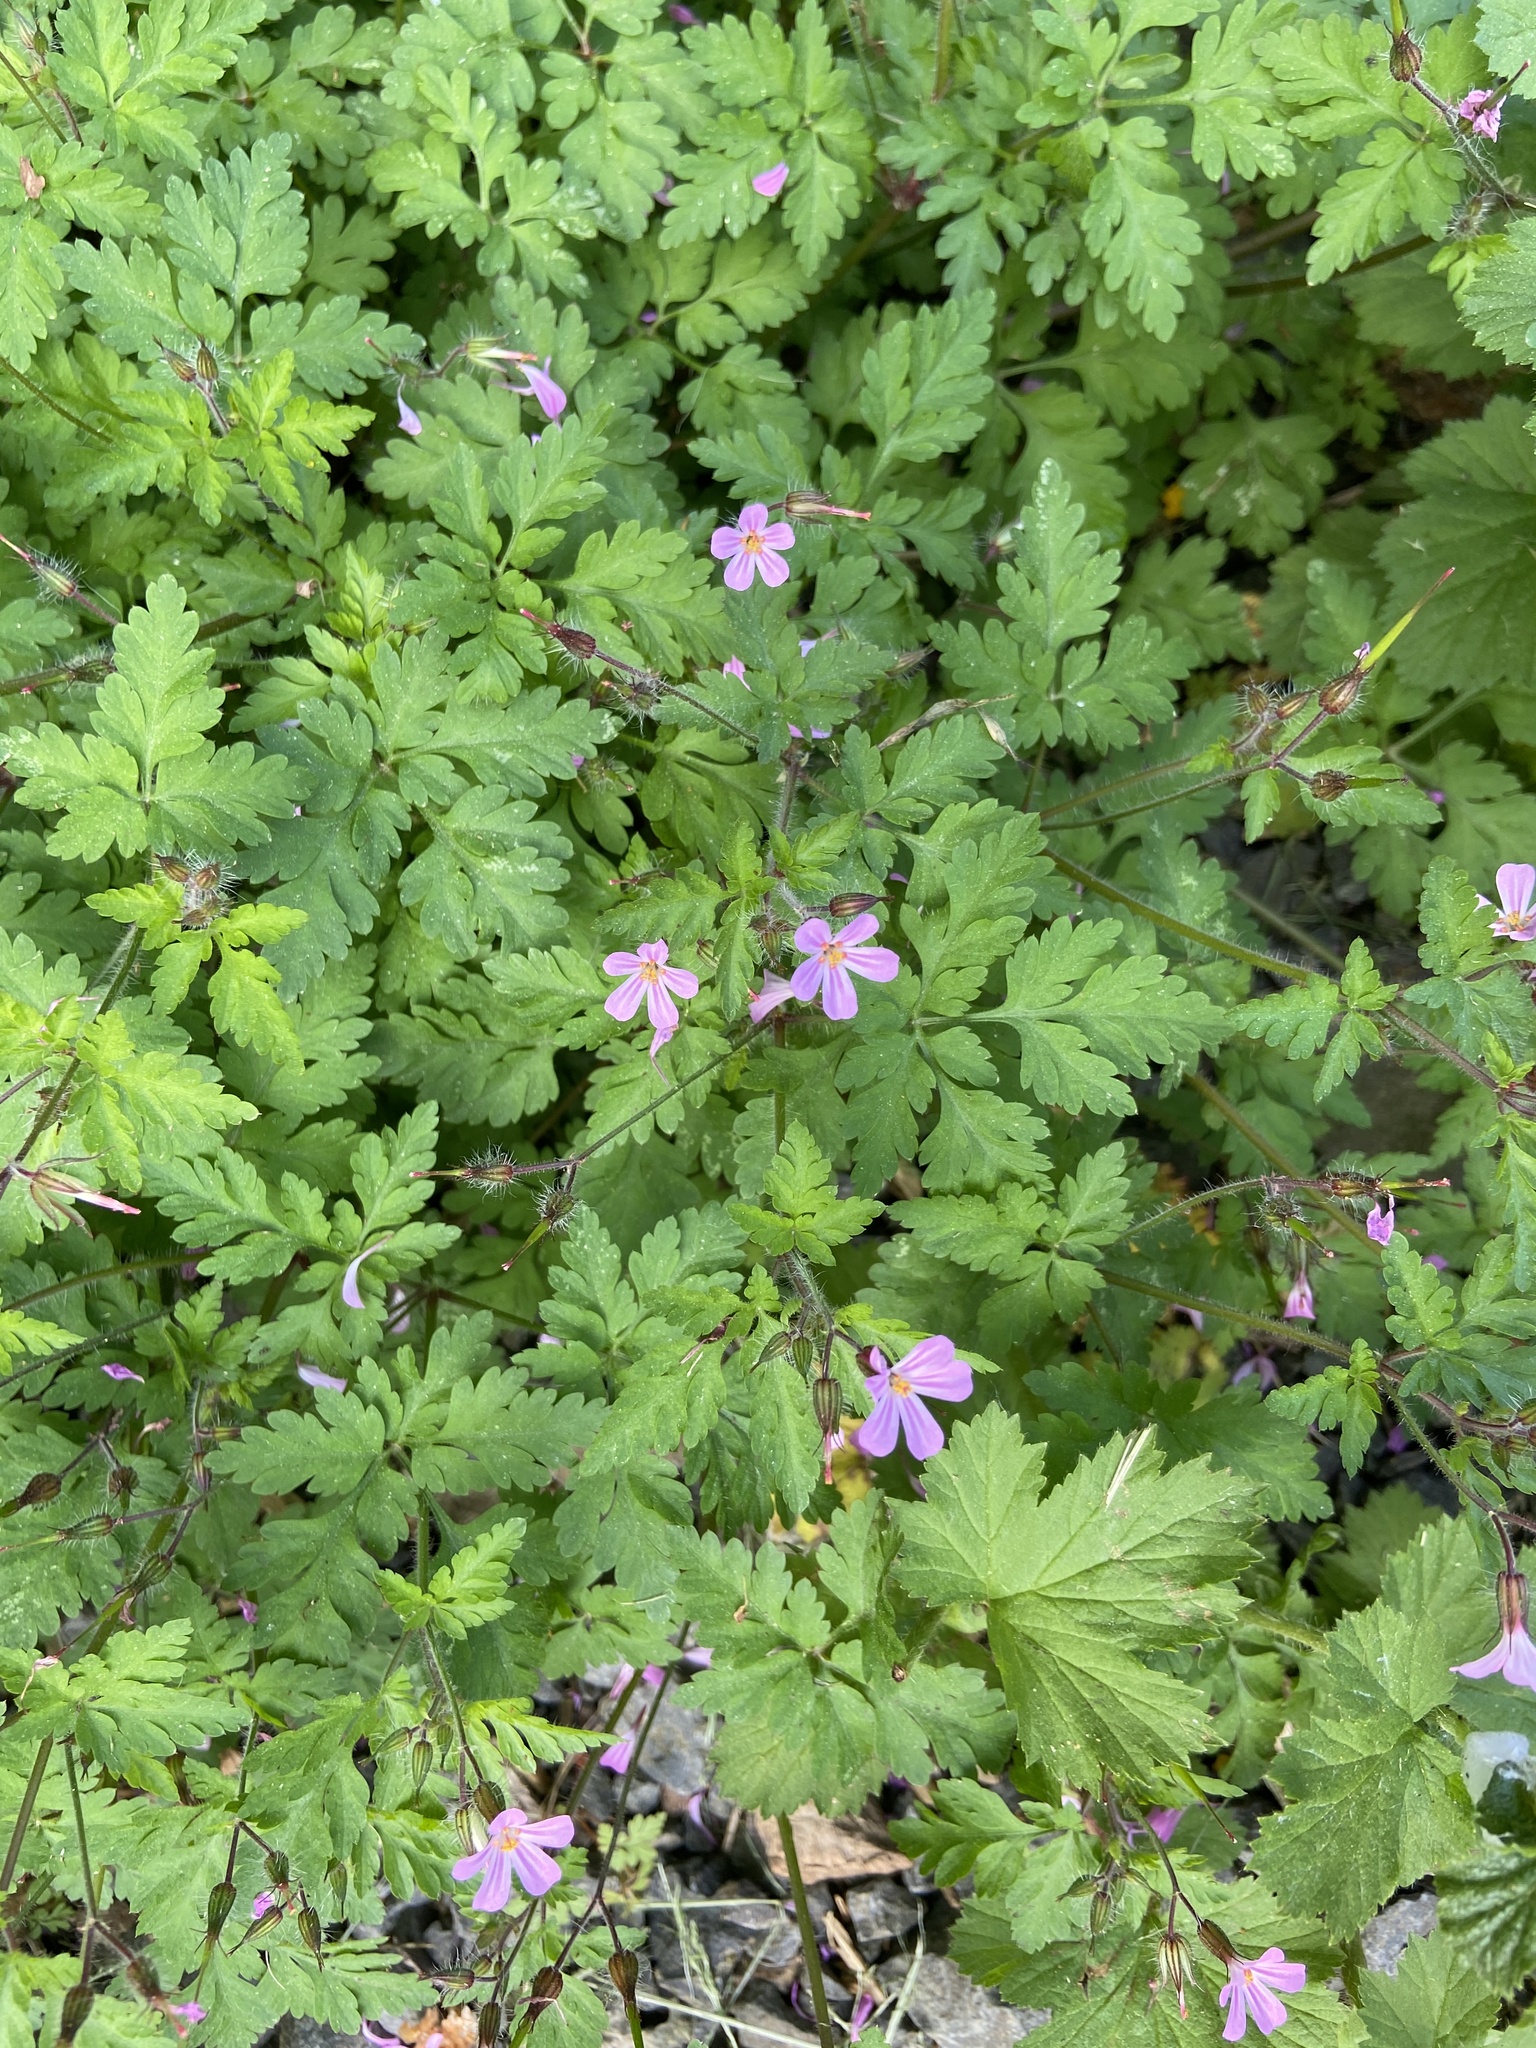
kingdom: Plantae
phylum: Tracheophyta
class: Magnoliopsida
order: Geraniales
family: Geraniaceae
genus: Geranium
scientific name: Geranium robertianum
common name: Herb-robert
